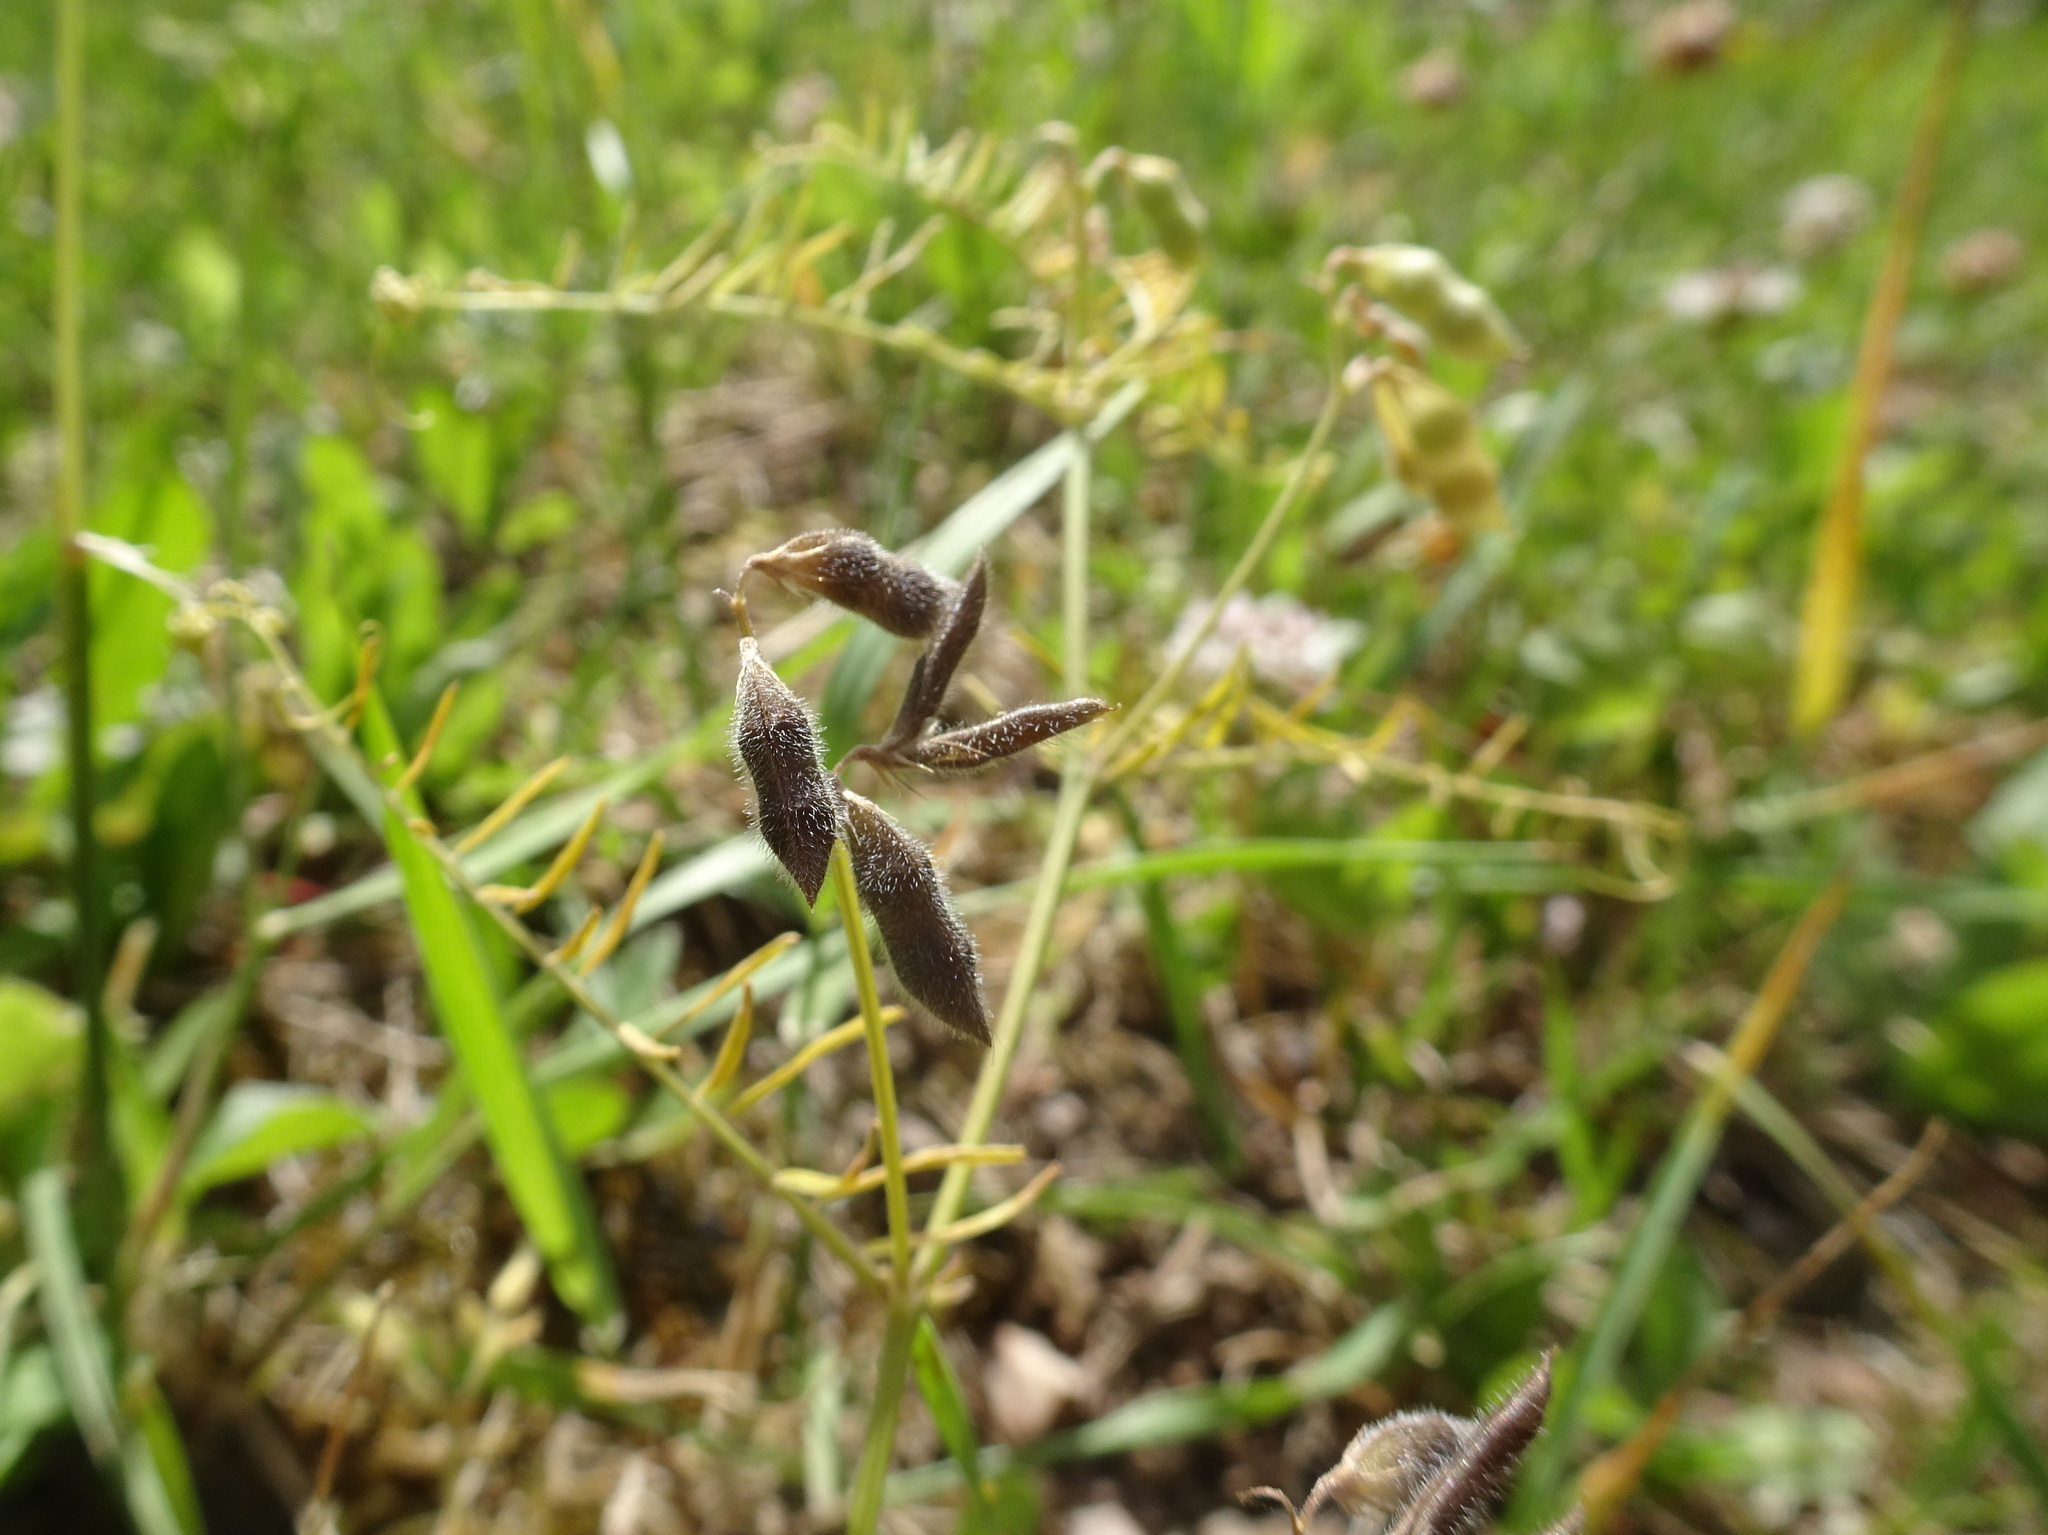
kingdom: Plantae
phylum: Tracheophyta
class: Magnoliopsida
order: Fabales
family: Fabaceae
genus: Vicia
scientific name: Vicia hirsuta
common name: Tiny vetch
